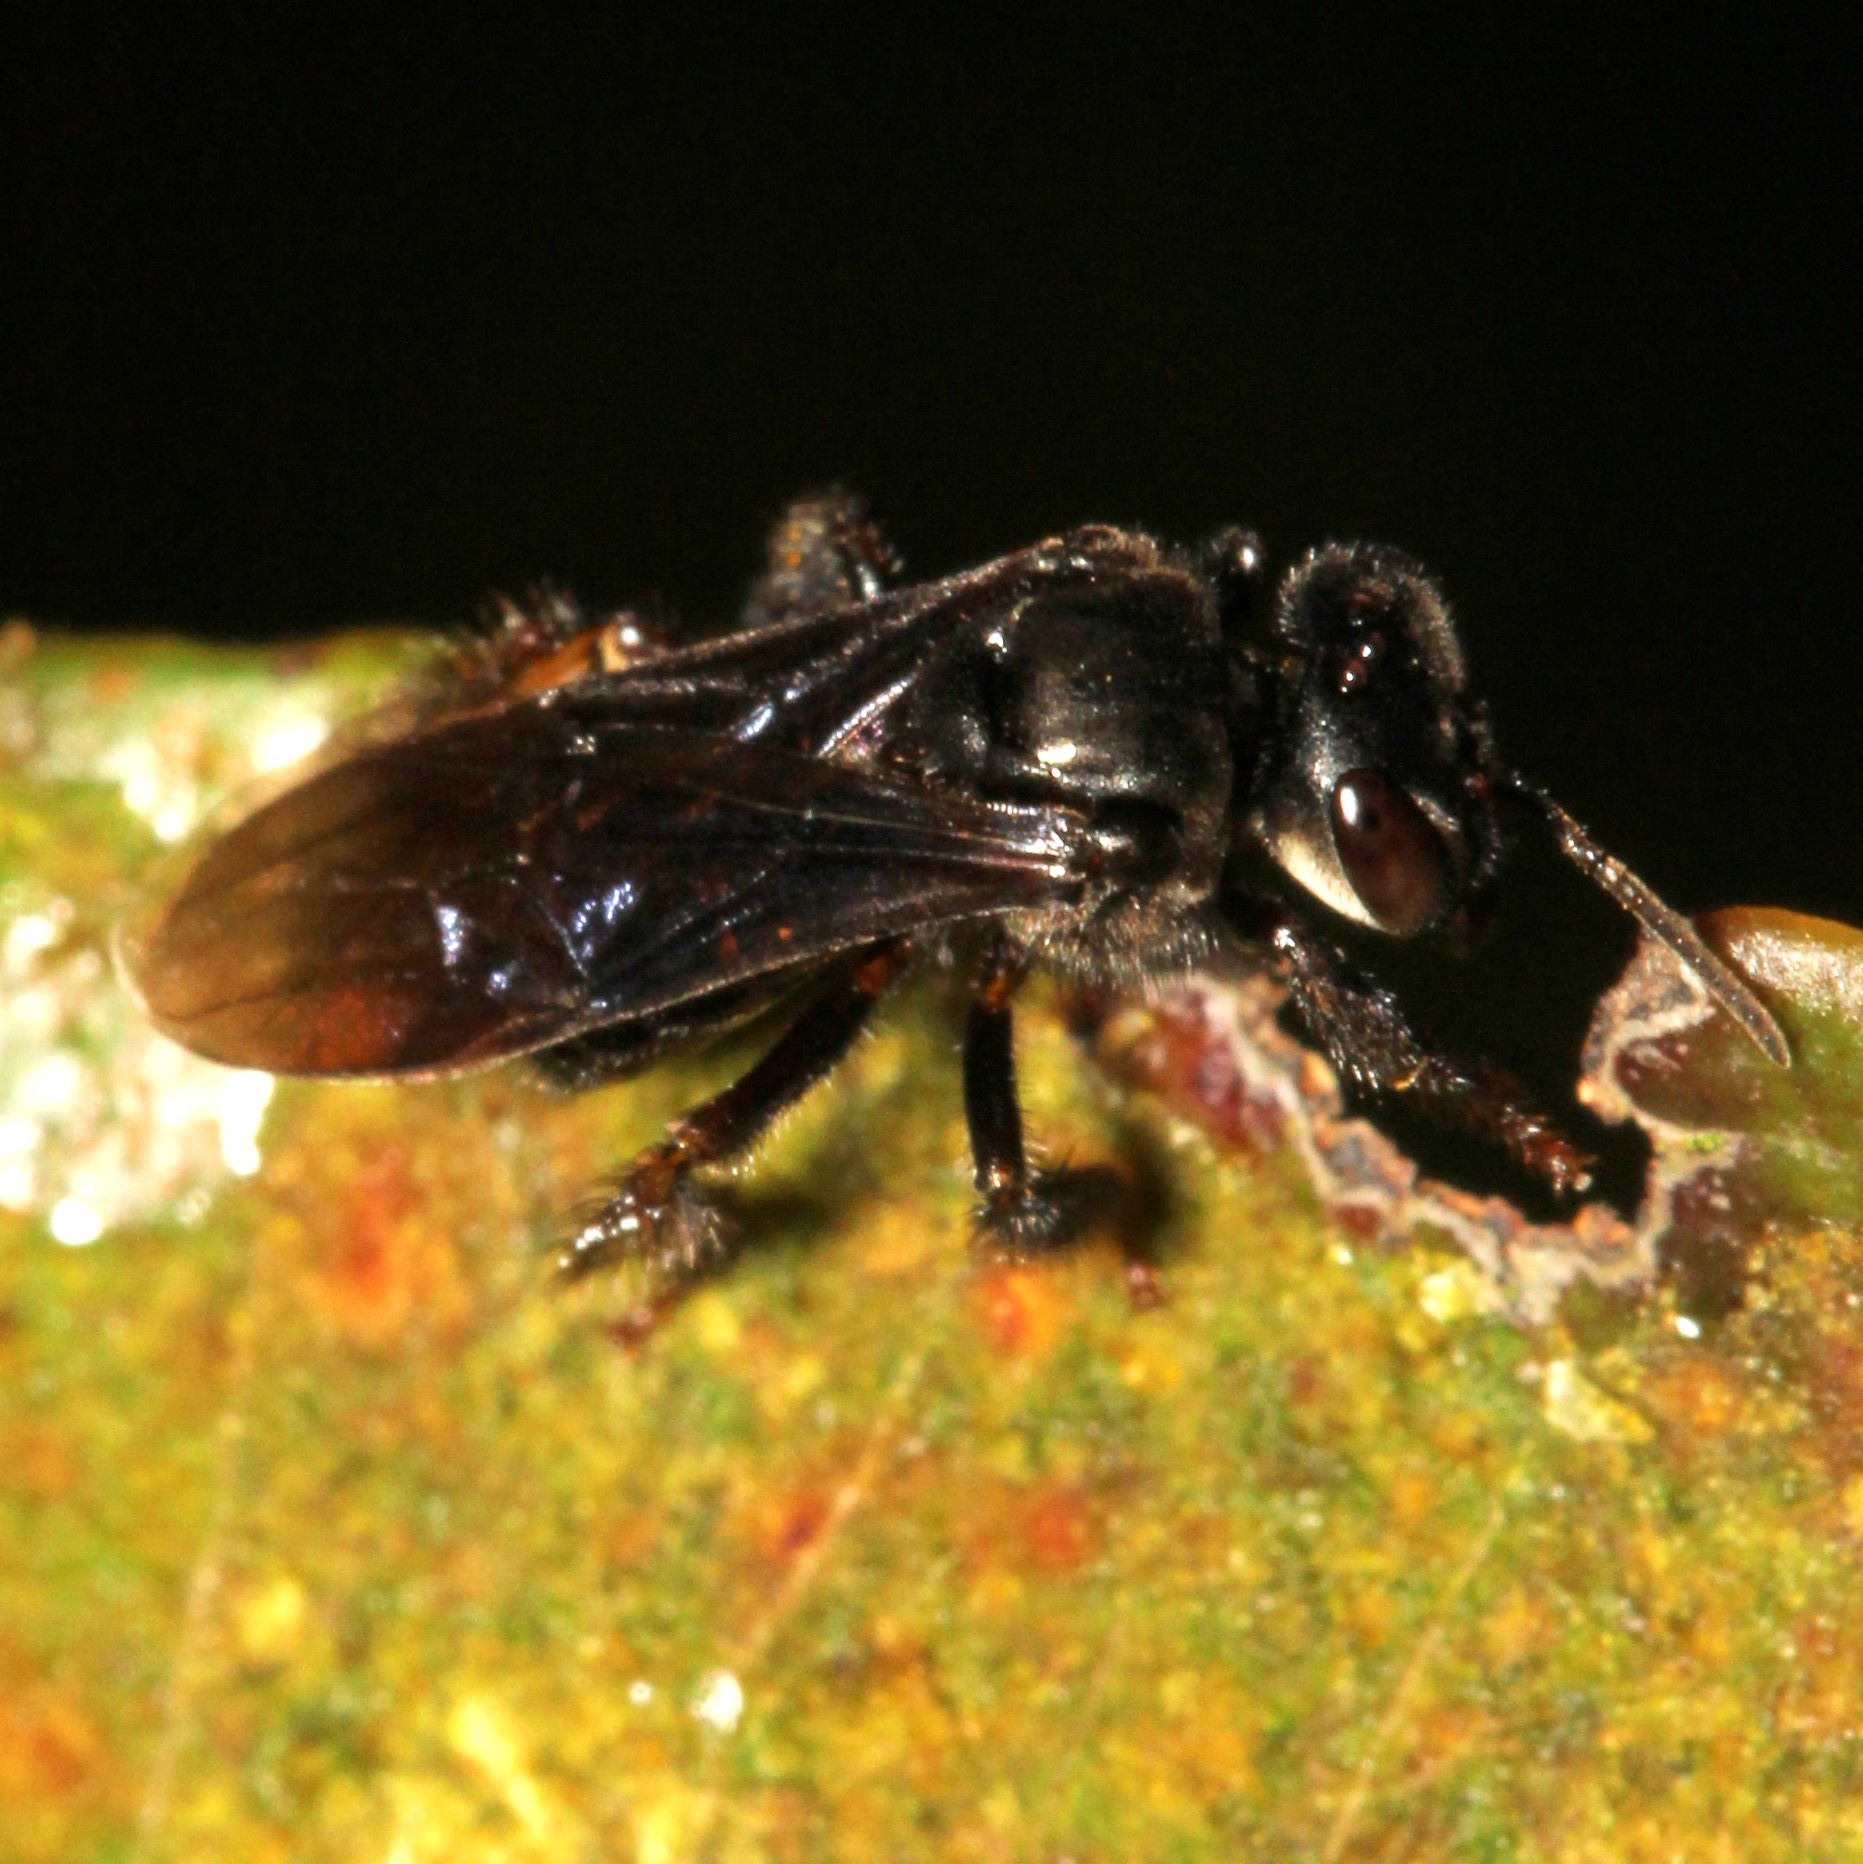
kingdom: Animalia
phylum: Arthropoda
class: Insecta
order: Hymenoptera
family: Apidae
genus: Trigona
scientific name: Trigona spinipes
